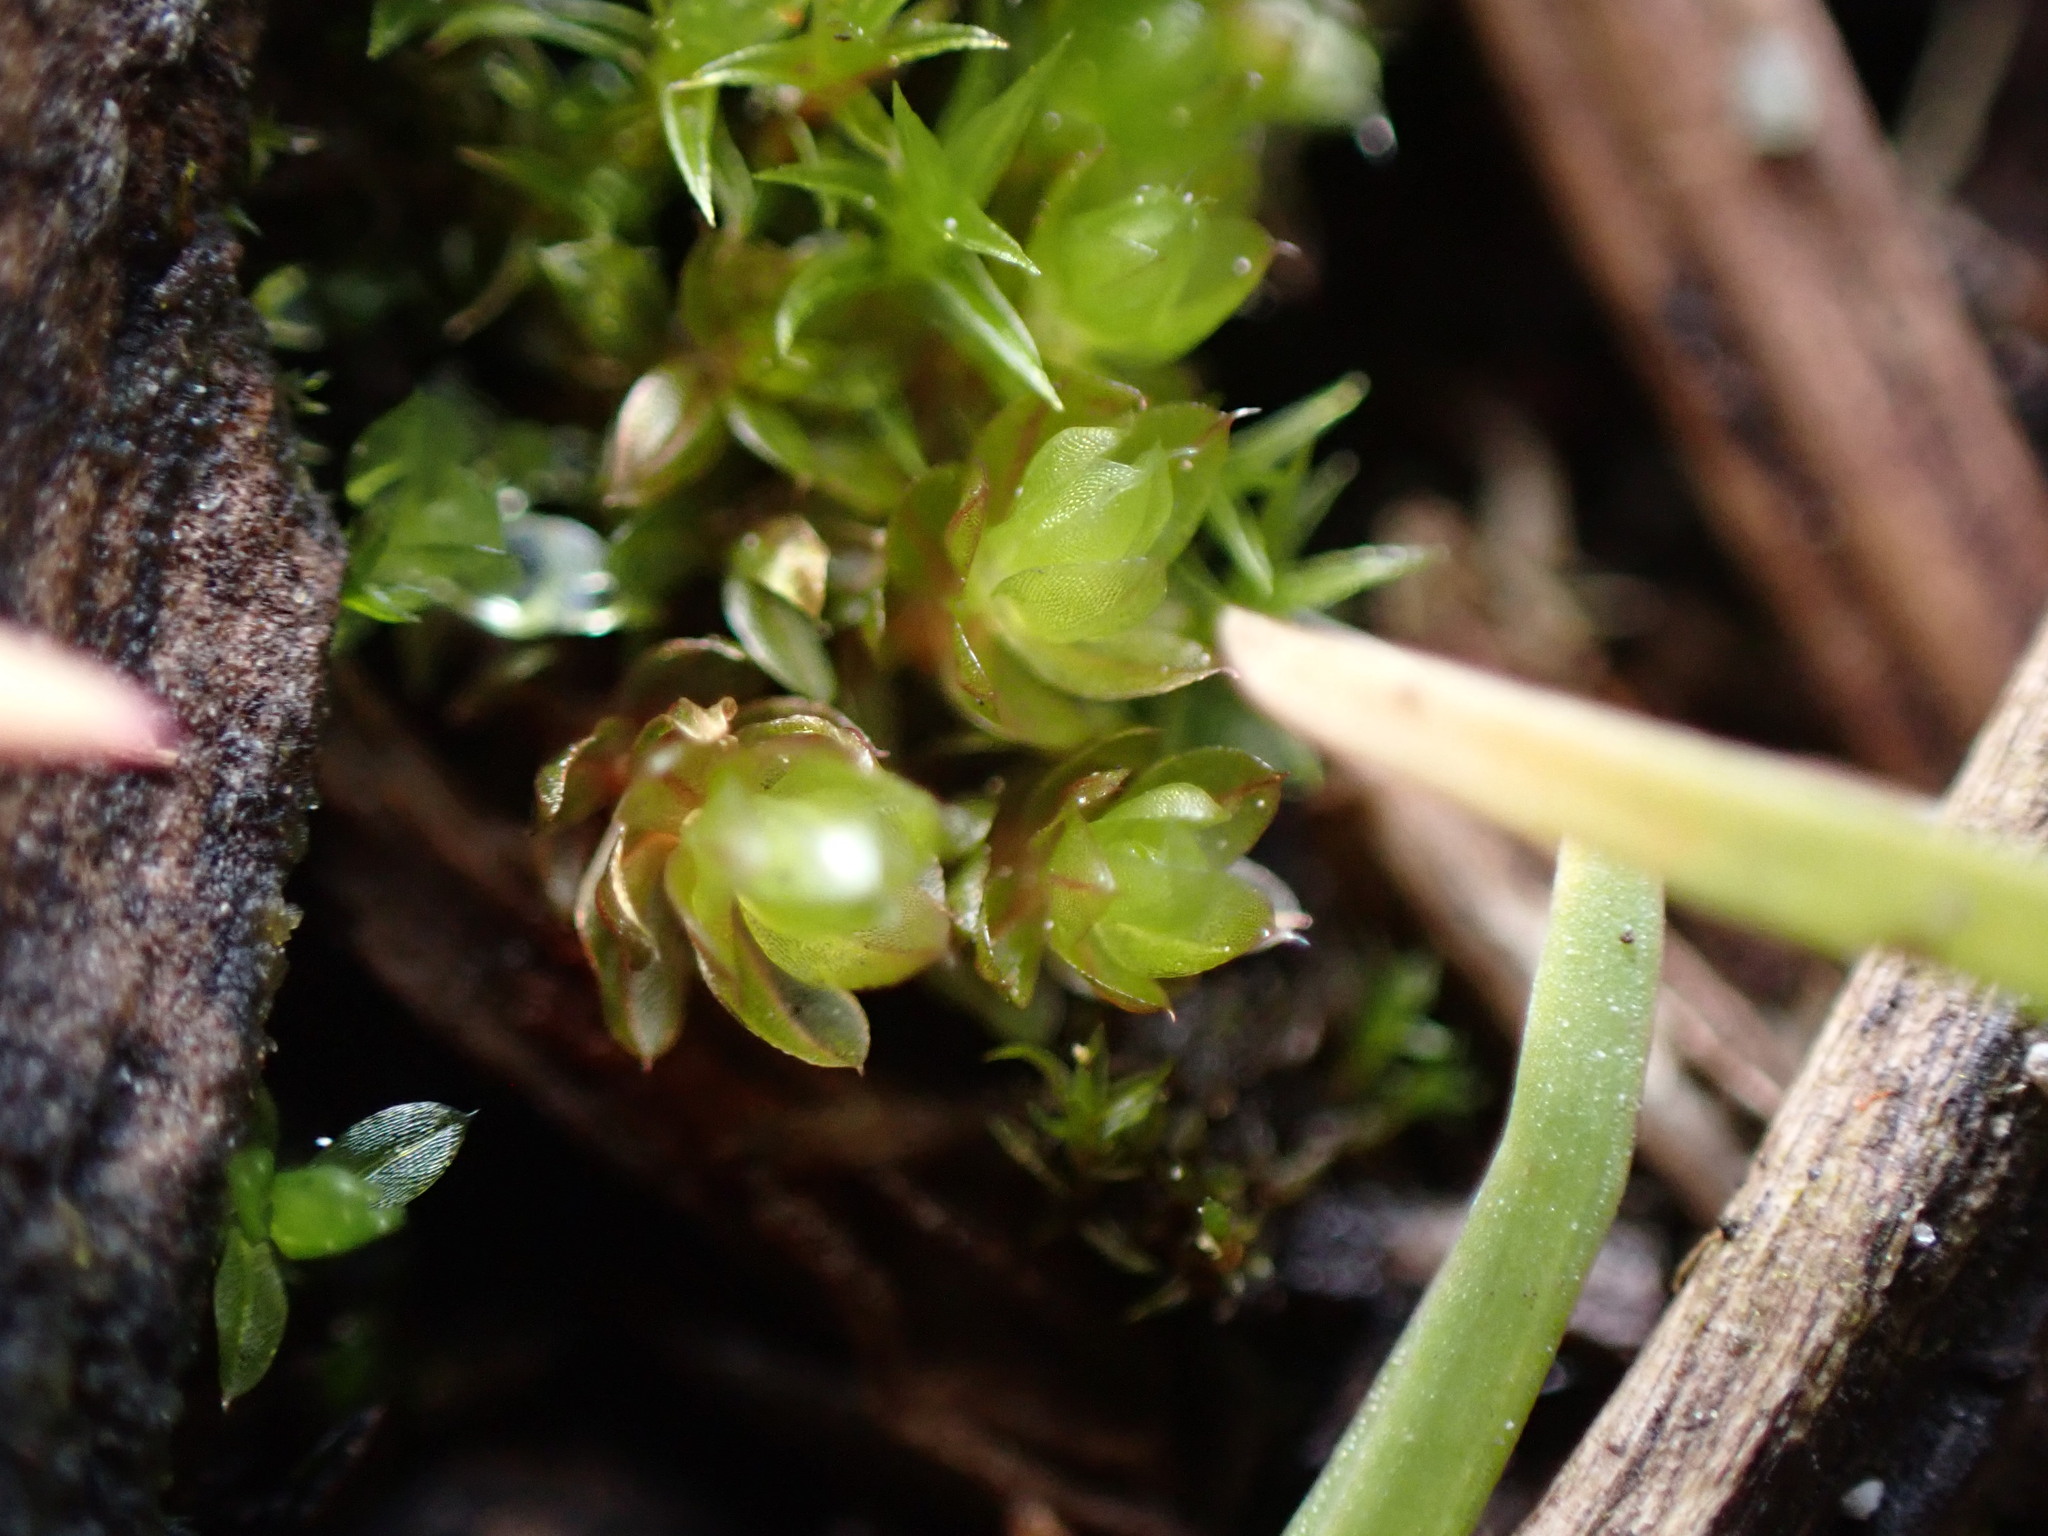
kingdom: Plantae
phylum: Bryophyta
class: Bryopsida
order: Bryales
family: Bryaceae
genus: Rosulabryum
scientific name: Rosulabryum capillare
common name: Capillary thread-moss
